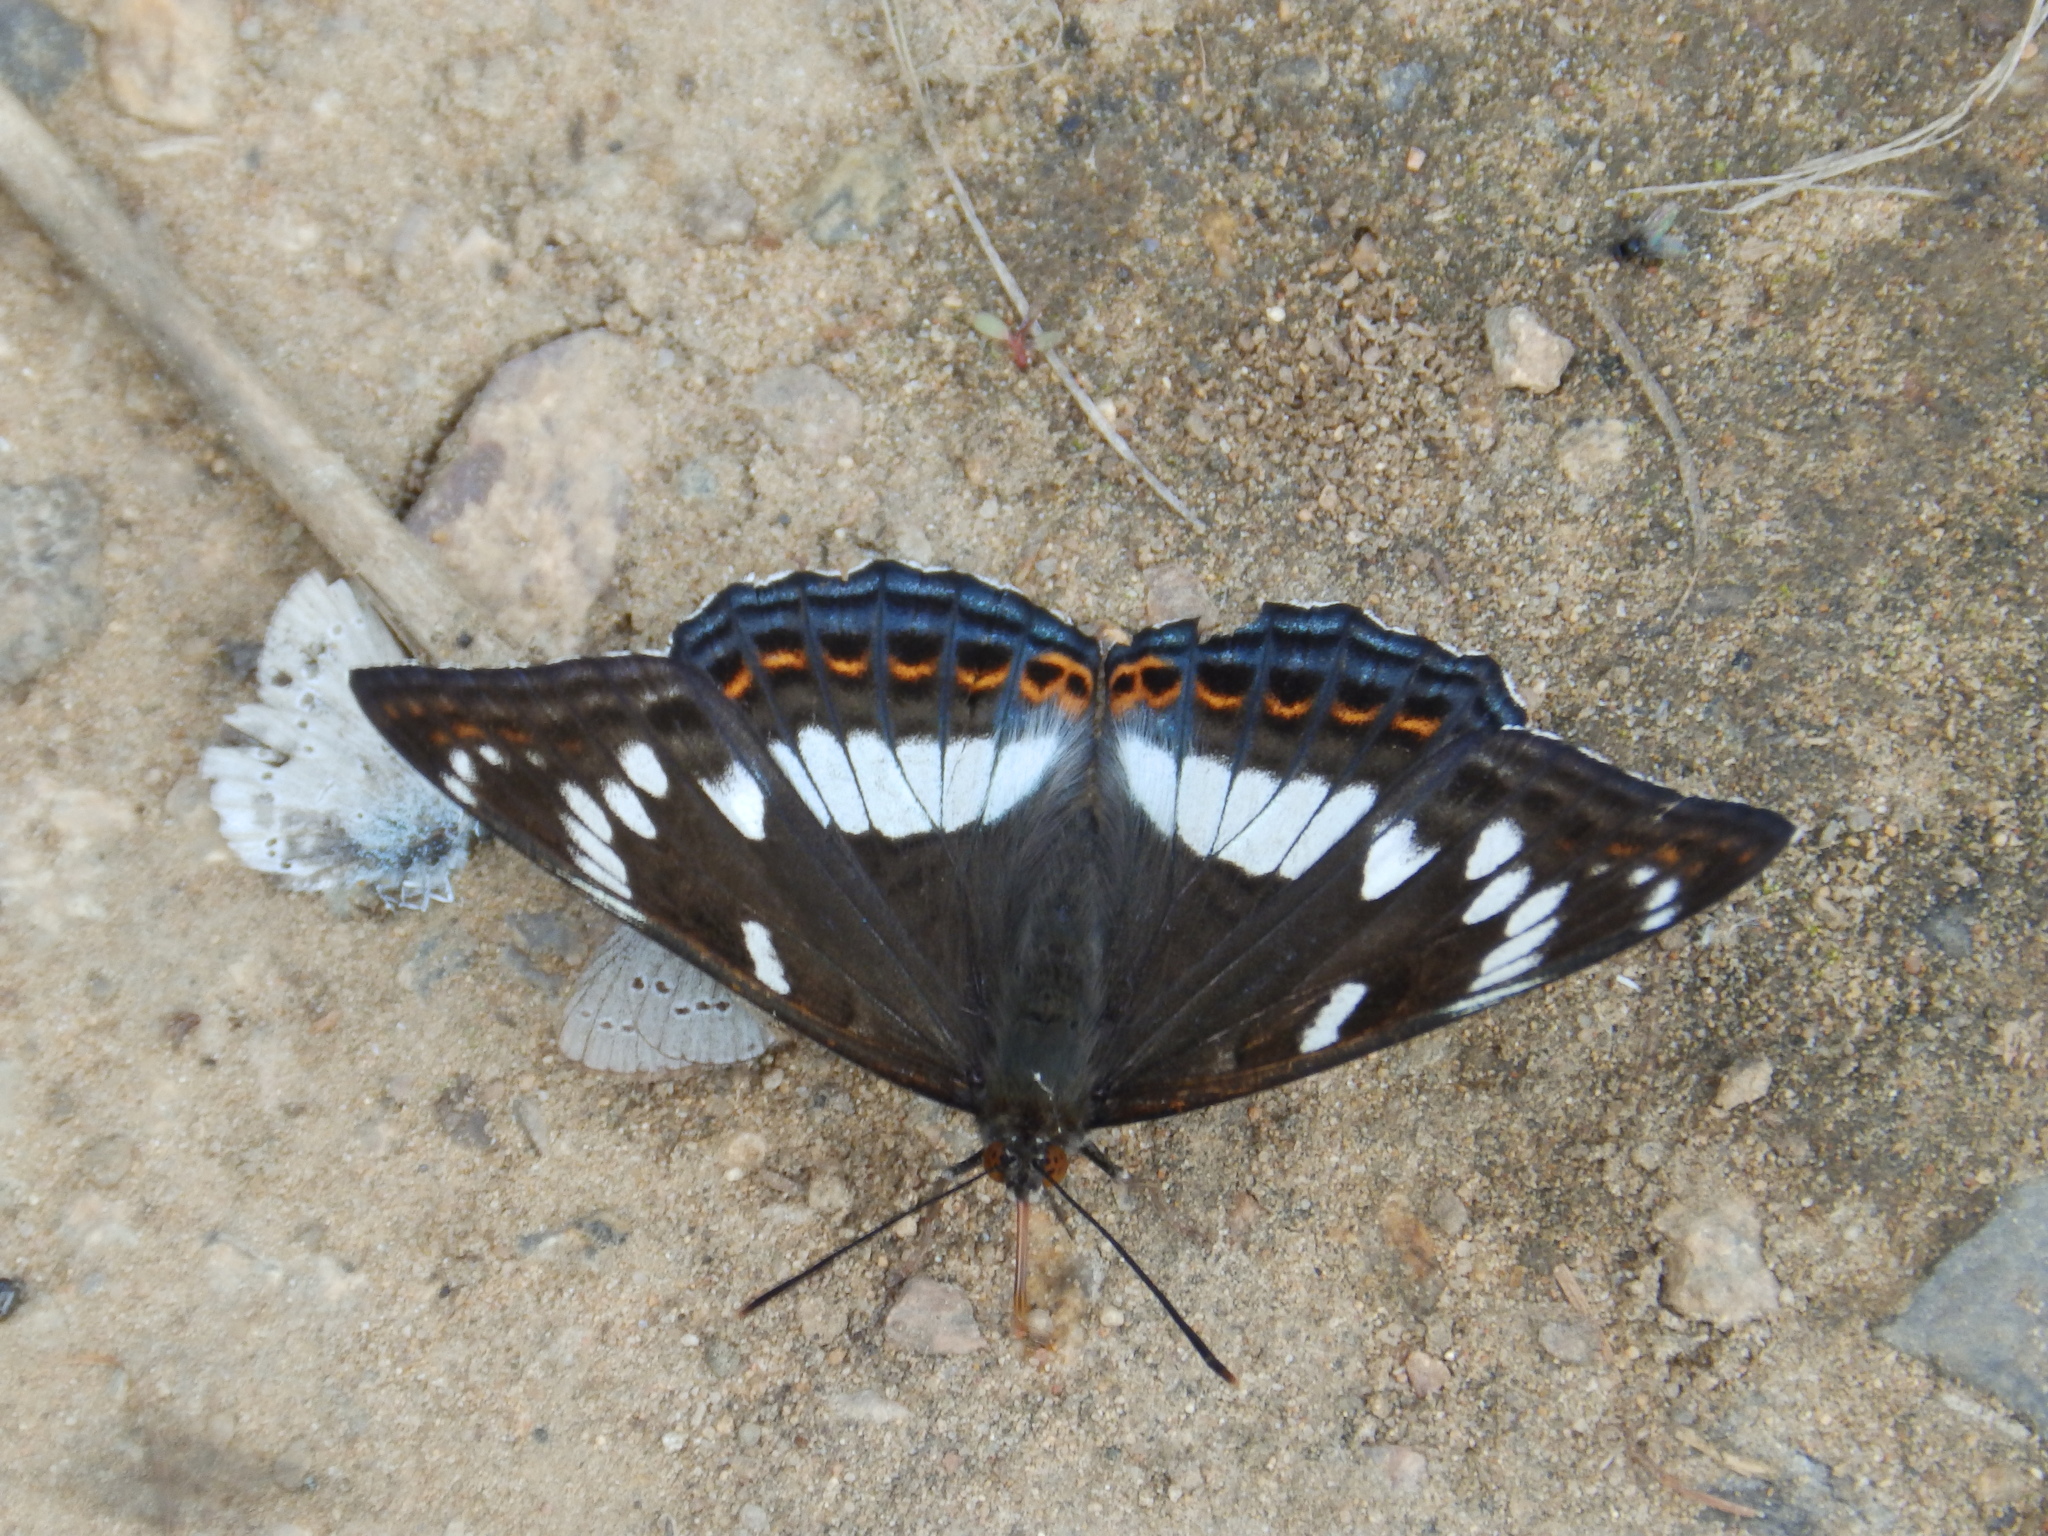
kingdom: Animalia
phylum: Arthropoda
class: Insecta
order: Lepidoptera
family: Nymphalidae
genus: Limenitis
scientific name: Limenitis populi
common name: Poplar admiral
